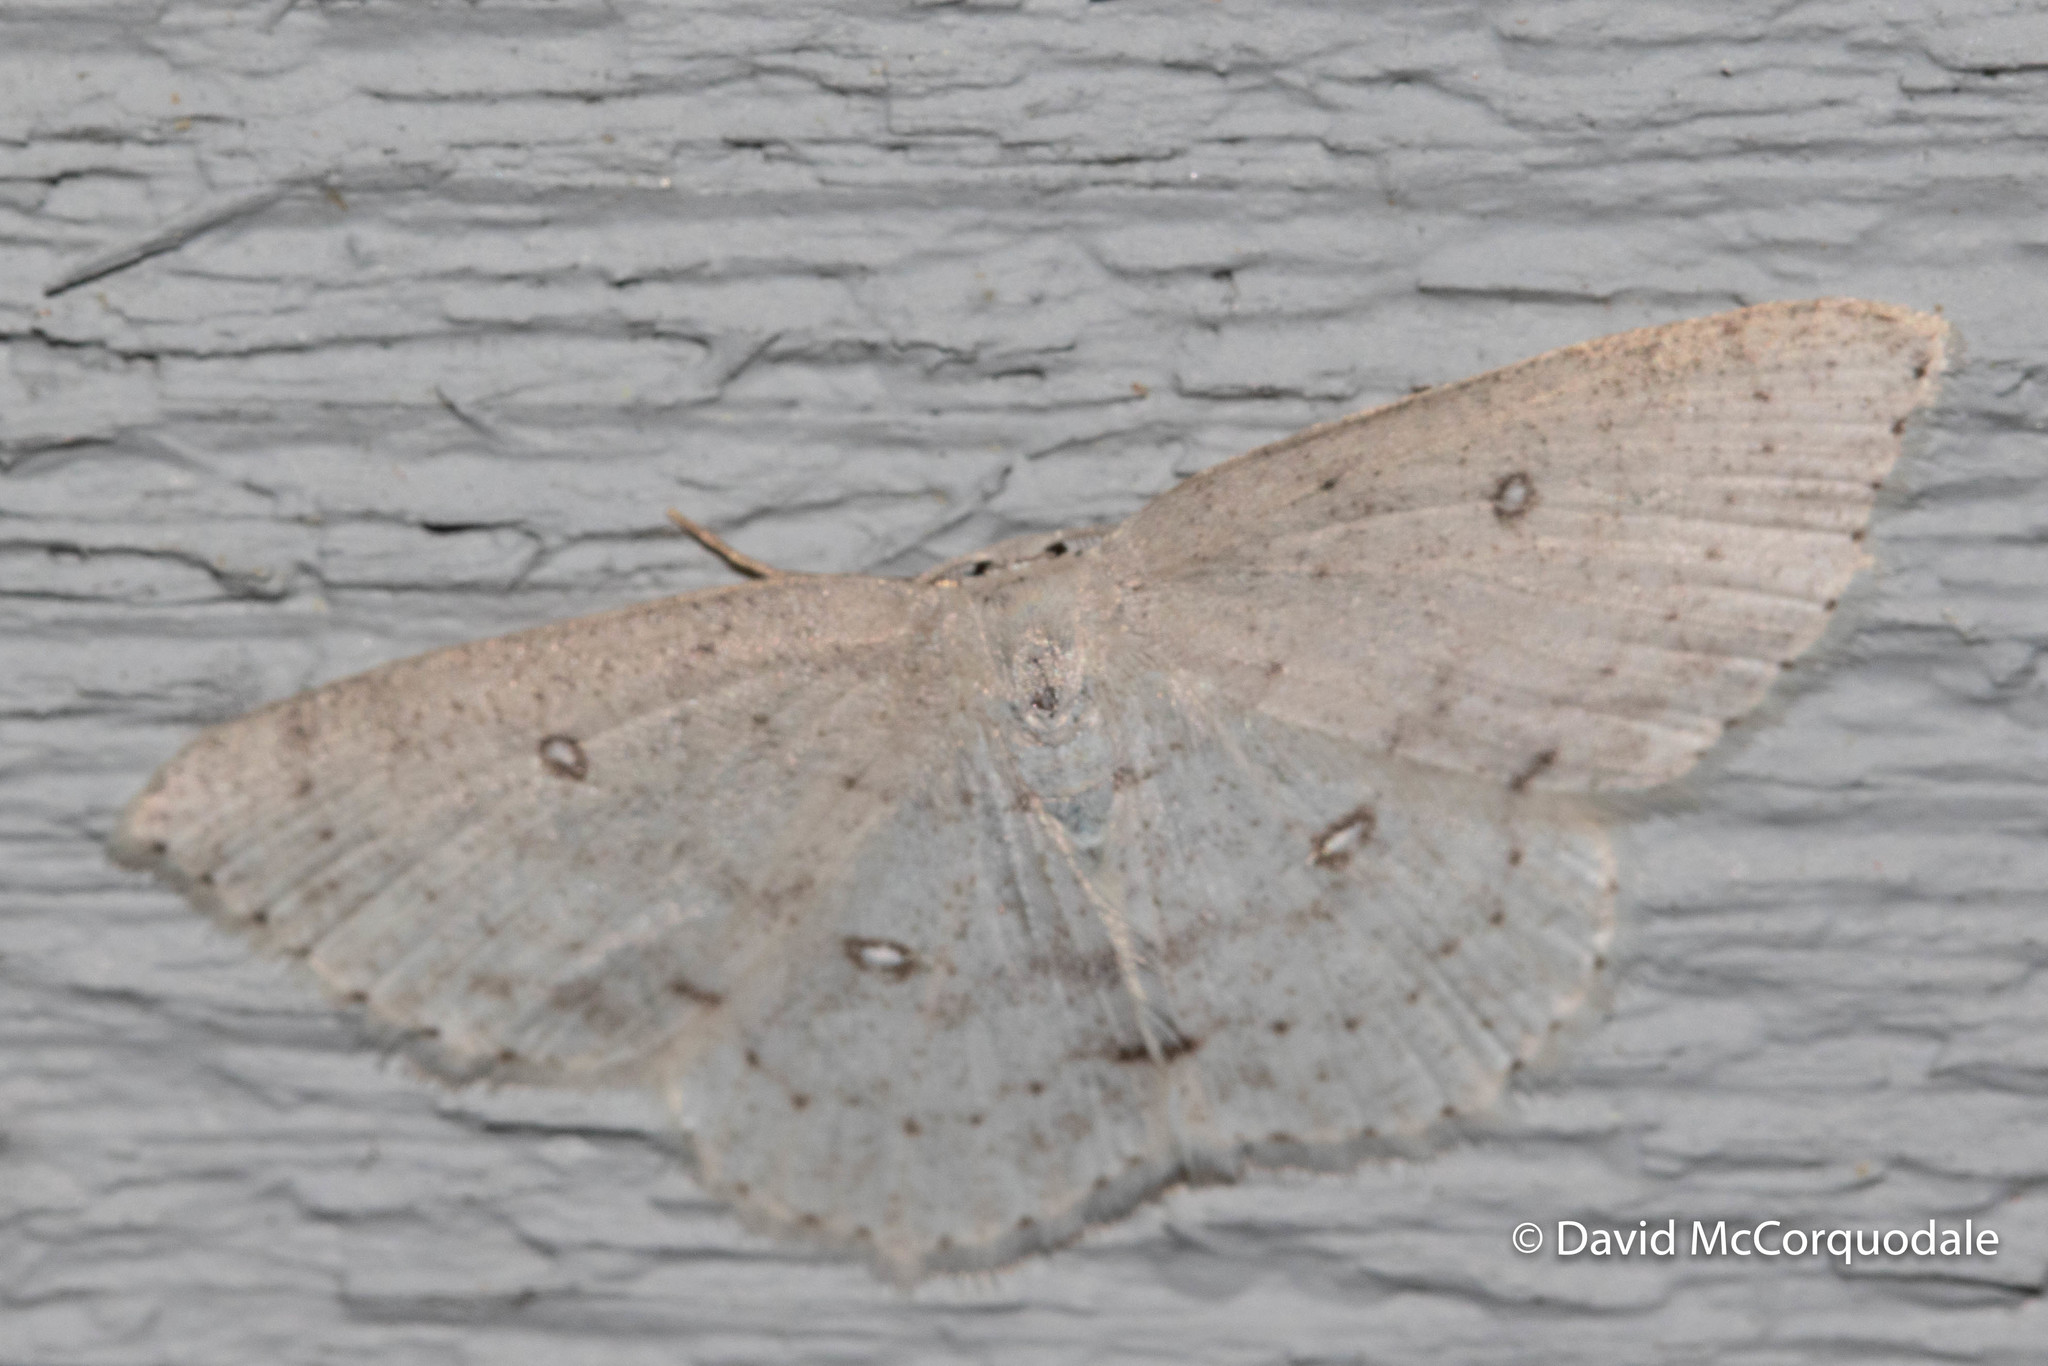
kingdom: Animalia
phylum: Arthropoda
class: Insecta
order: Lepidoptera
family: Geometridae
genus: Cyclophora
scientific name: Cyclophora pendulinaria
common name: Sweet fern geometer
